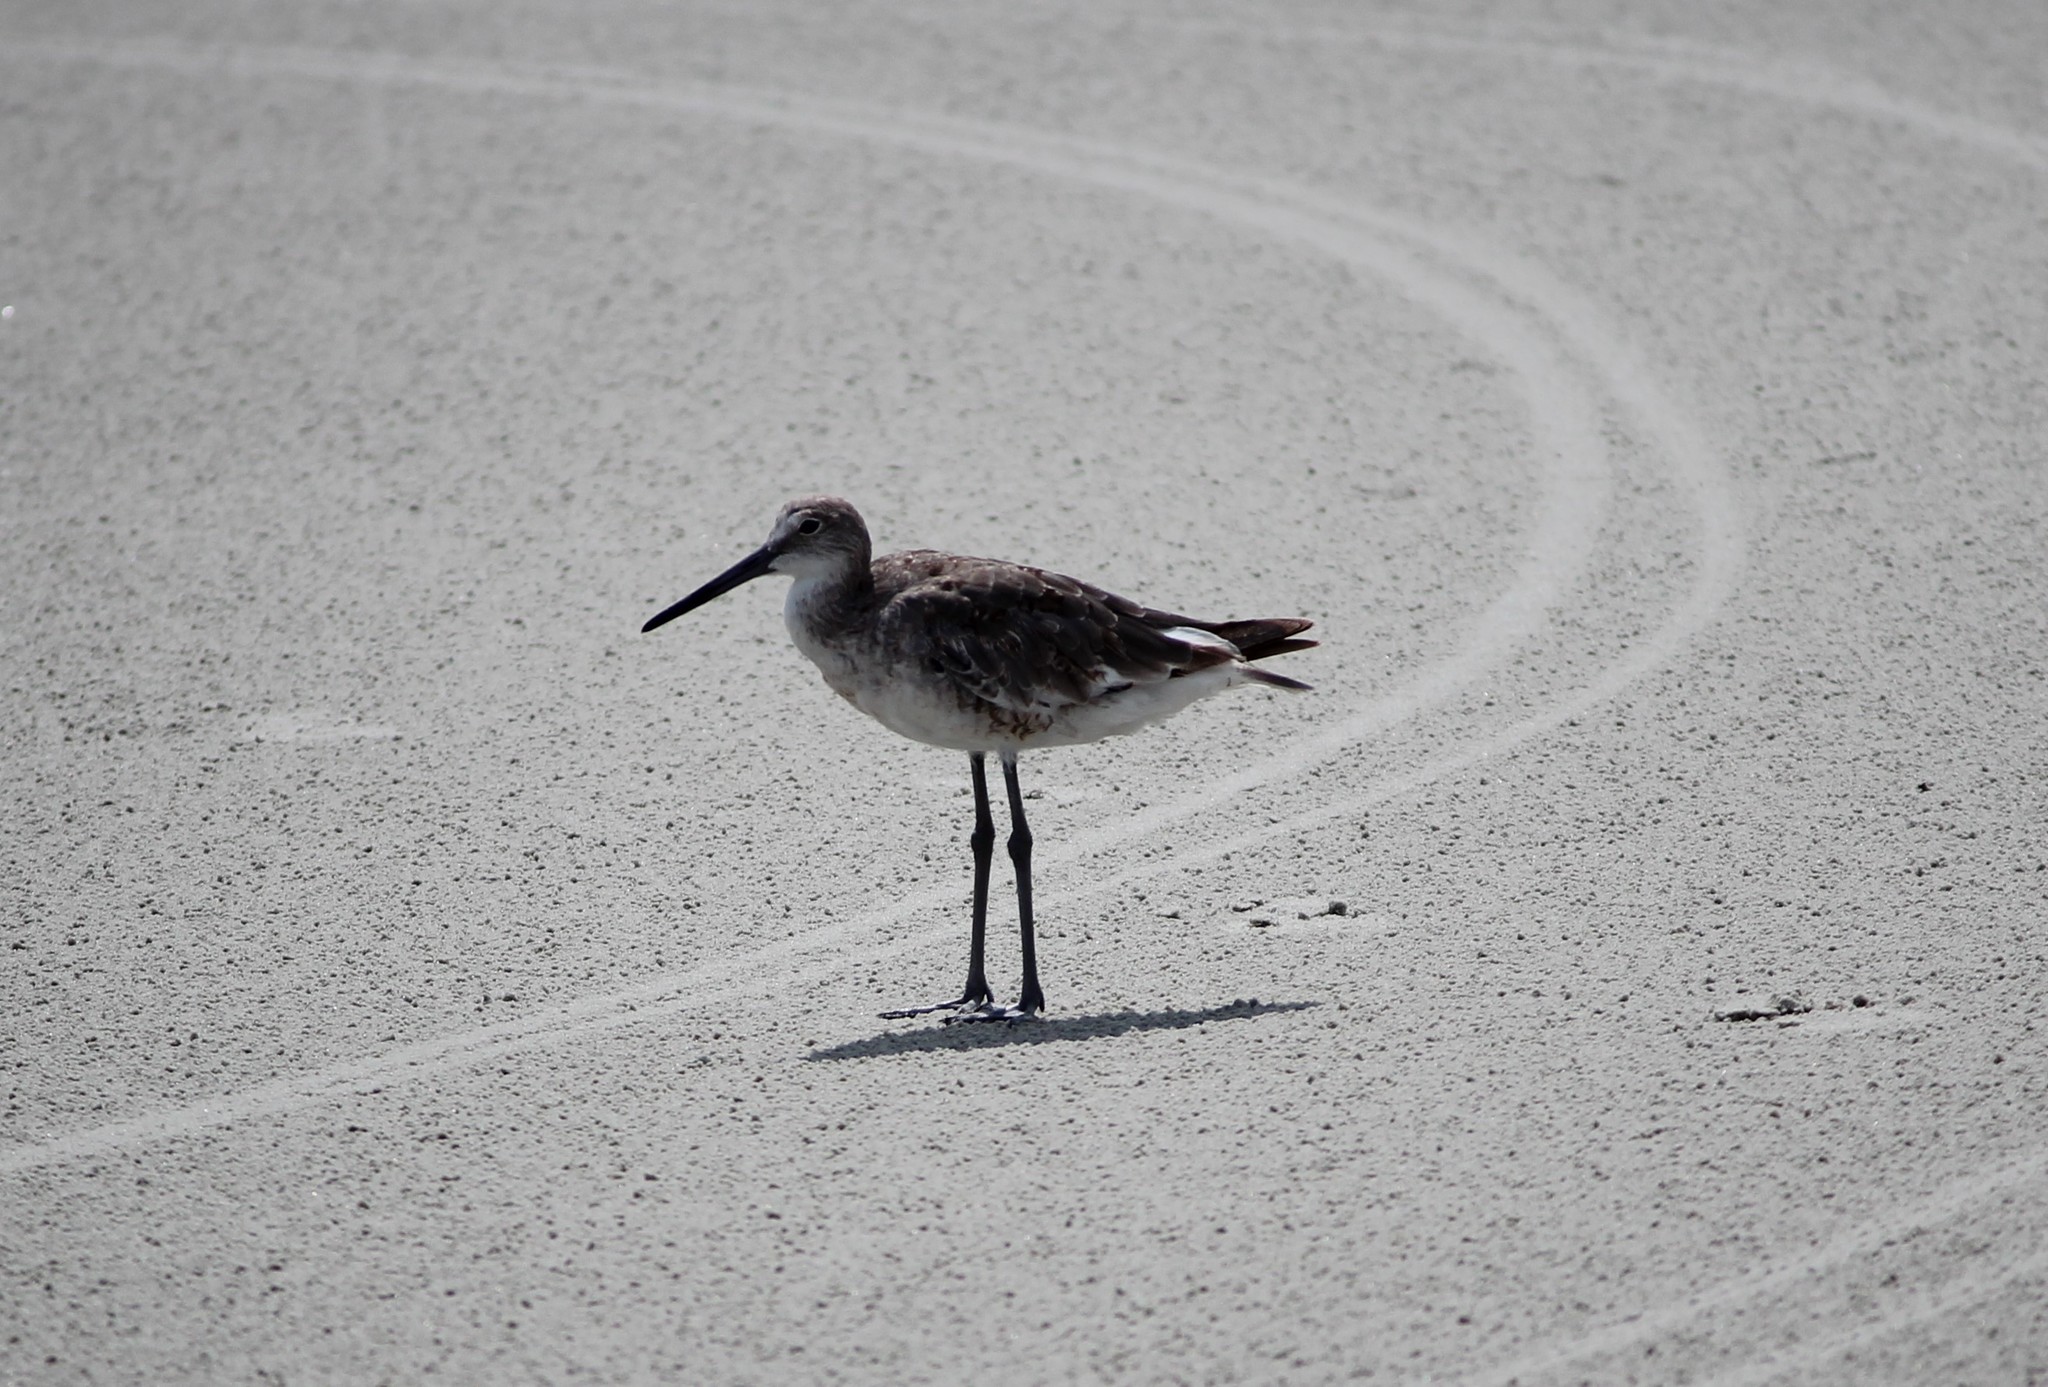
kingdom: Animalia
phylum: Chordata
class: Aves
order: Charadriiformes
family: Scolopacidae
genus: Tringa
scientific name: Tringa semipalmata
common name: Willet
